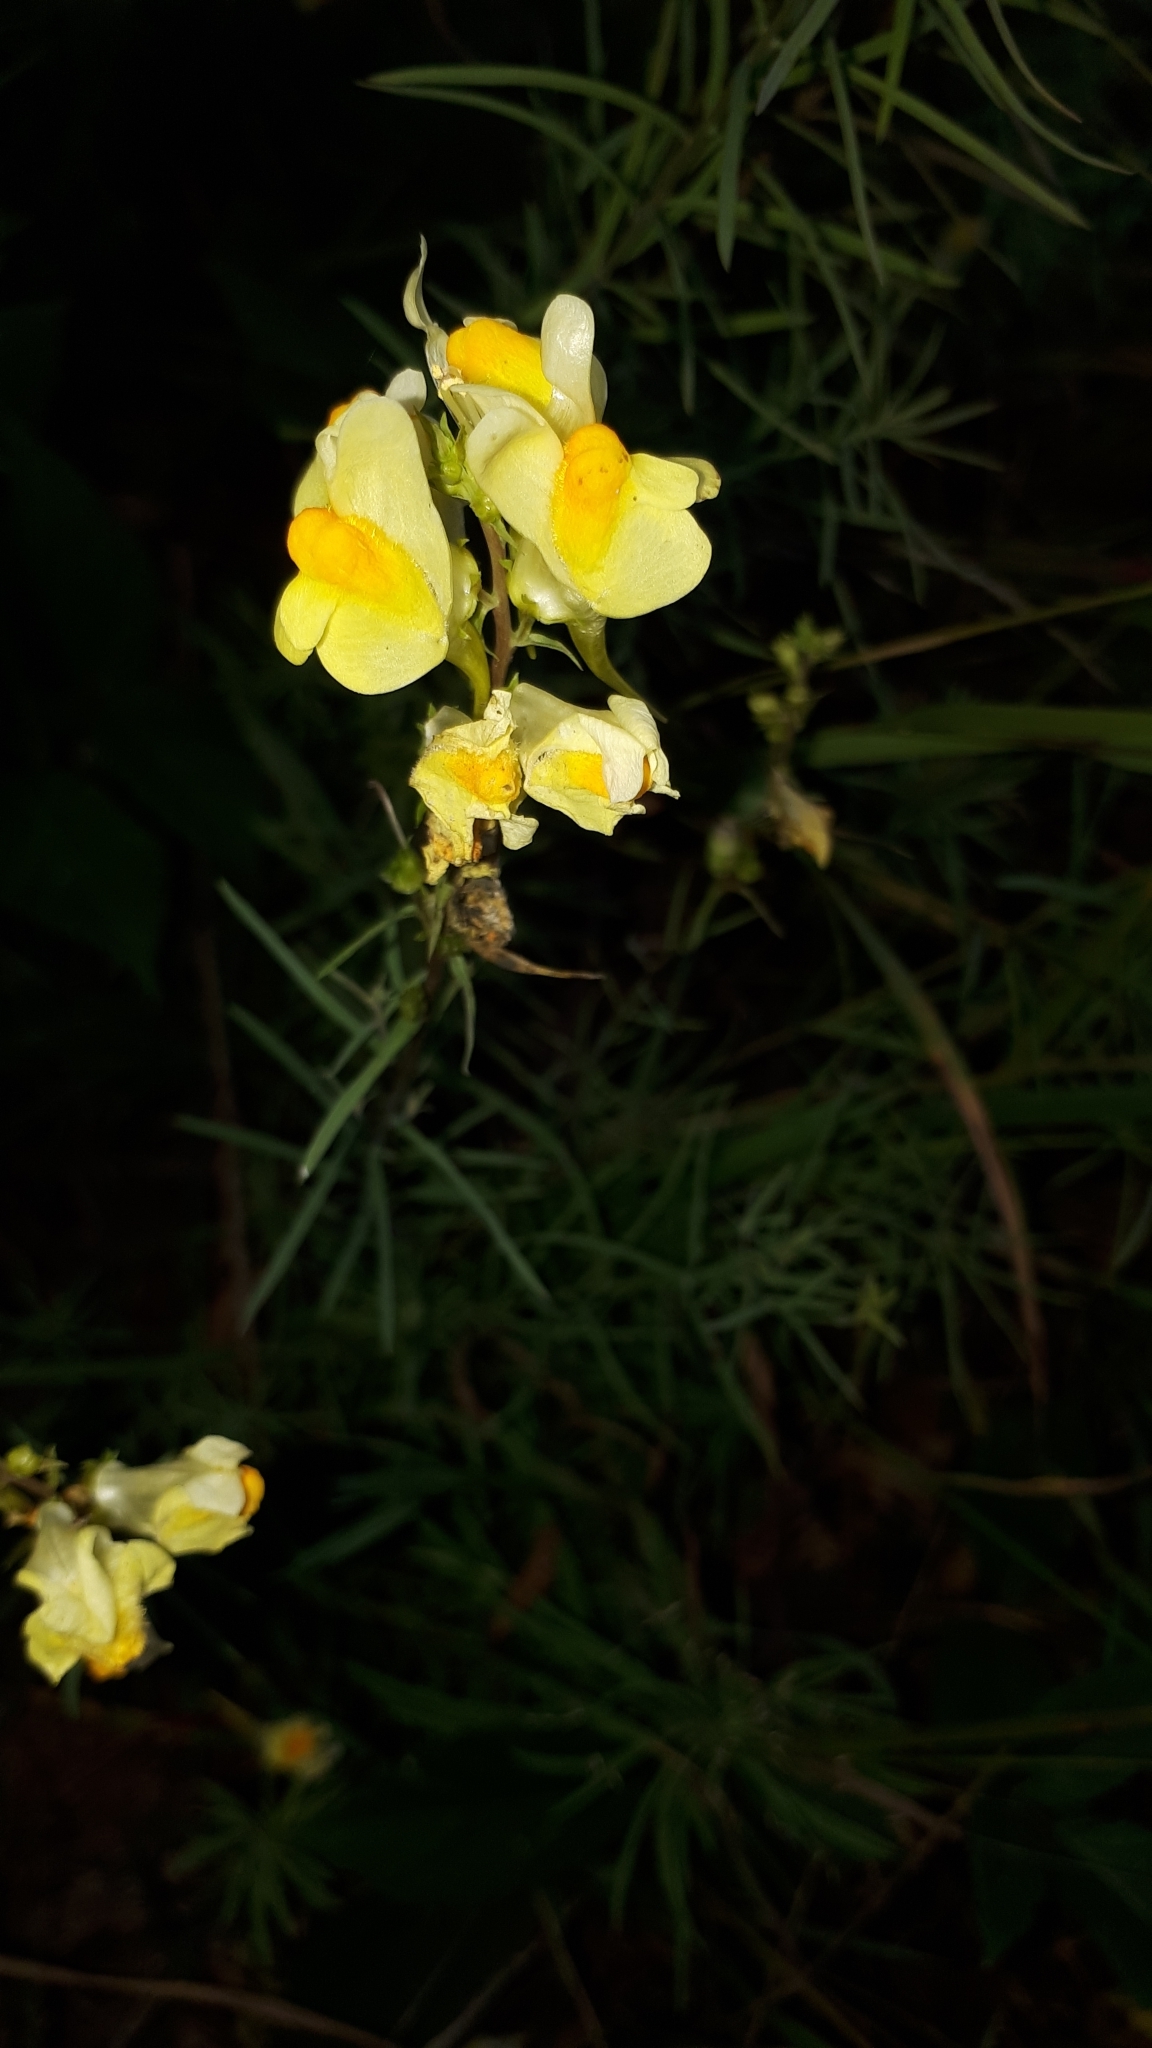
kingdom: Plantae
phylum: Tracheophyta
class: Magnoliopsida
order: Lamiales
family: Plantaginaceae
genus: Linaria
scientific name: Linaria vulgaris
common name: Butter and eggs
